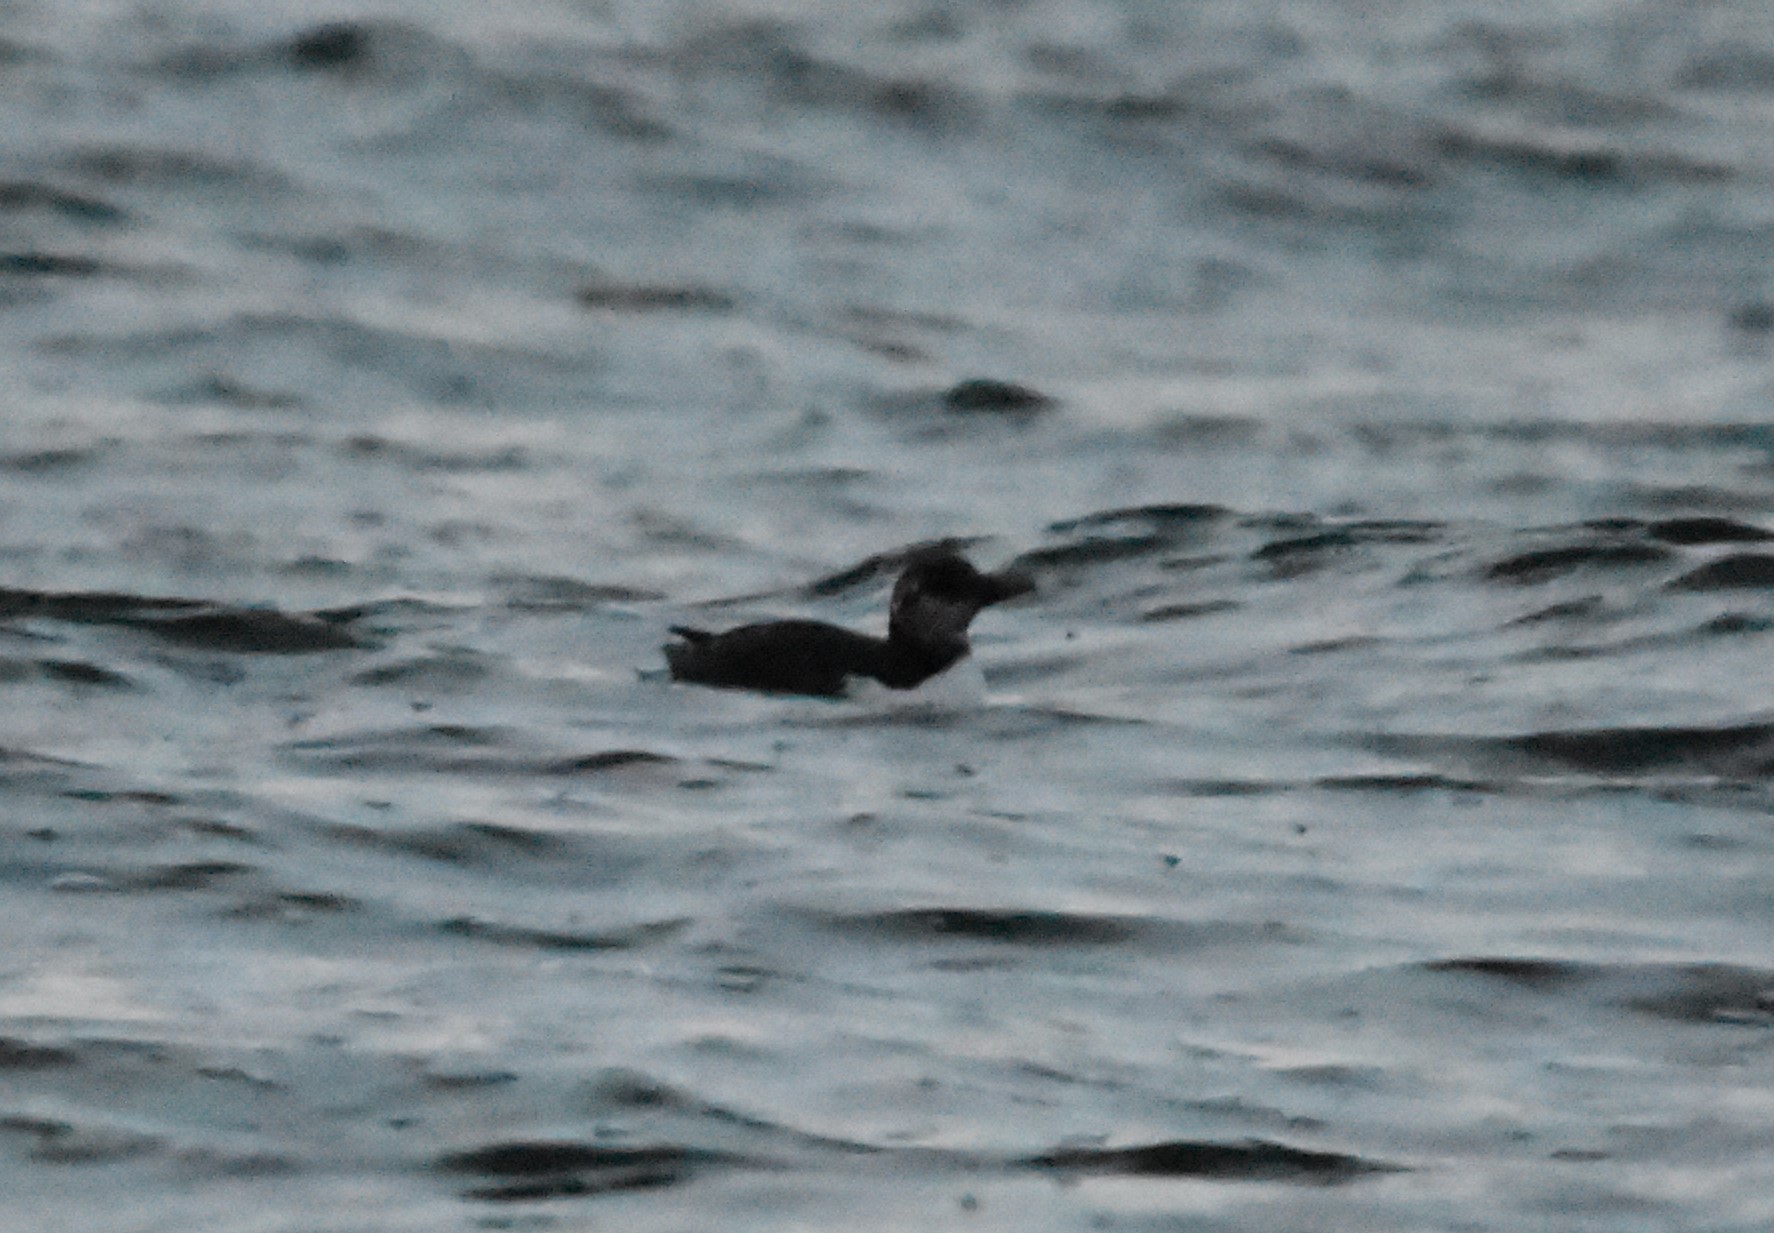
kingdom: Animalia
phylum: Chordata
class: Aves
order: Charadriiformes
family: Alcidae
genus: Uria
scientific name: Uria aalge
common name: Common murre
